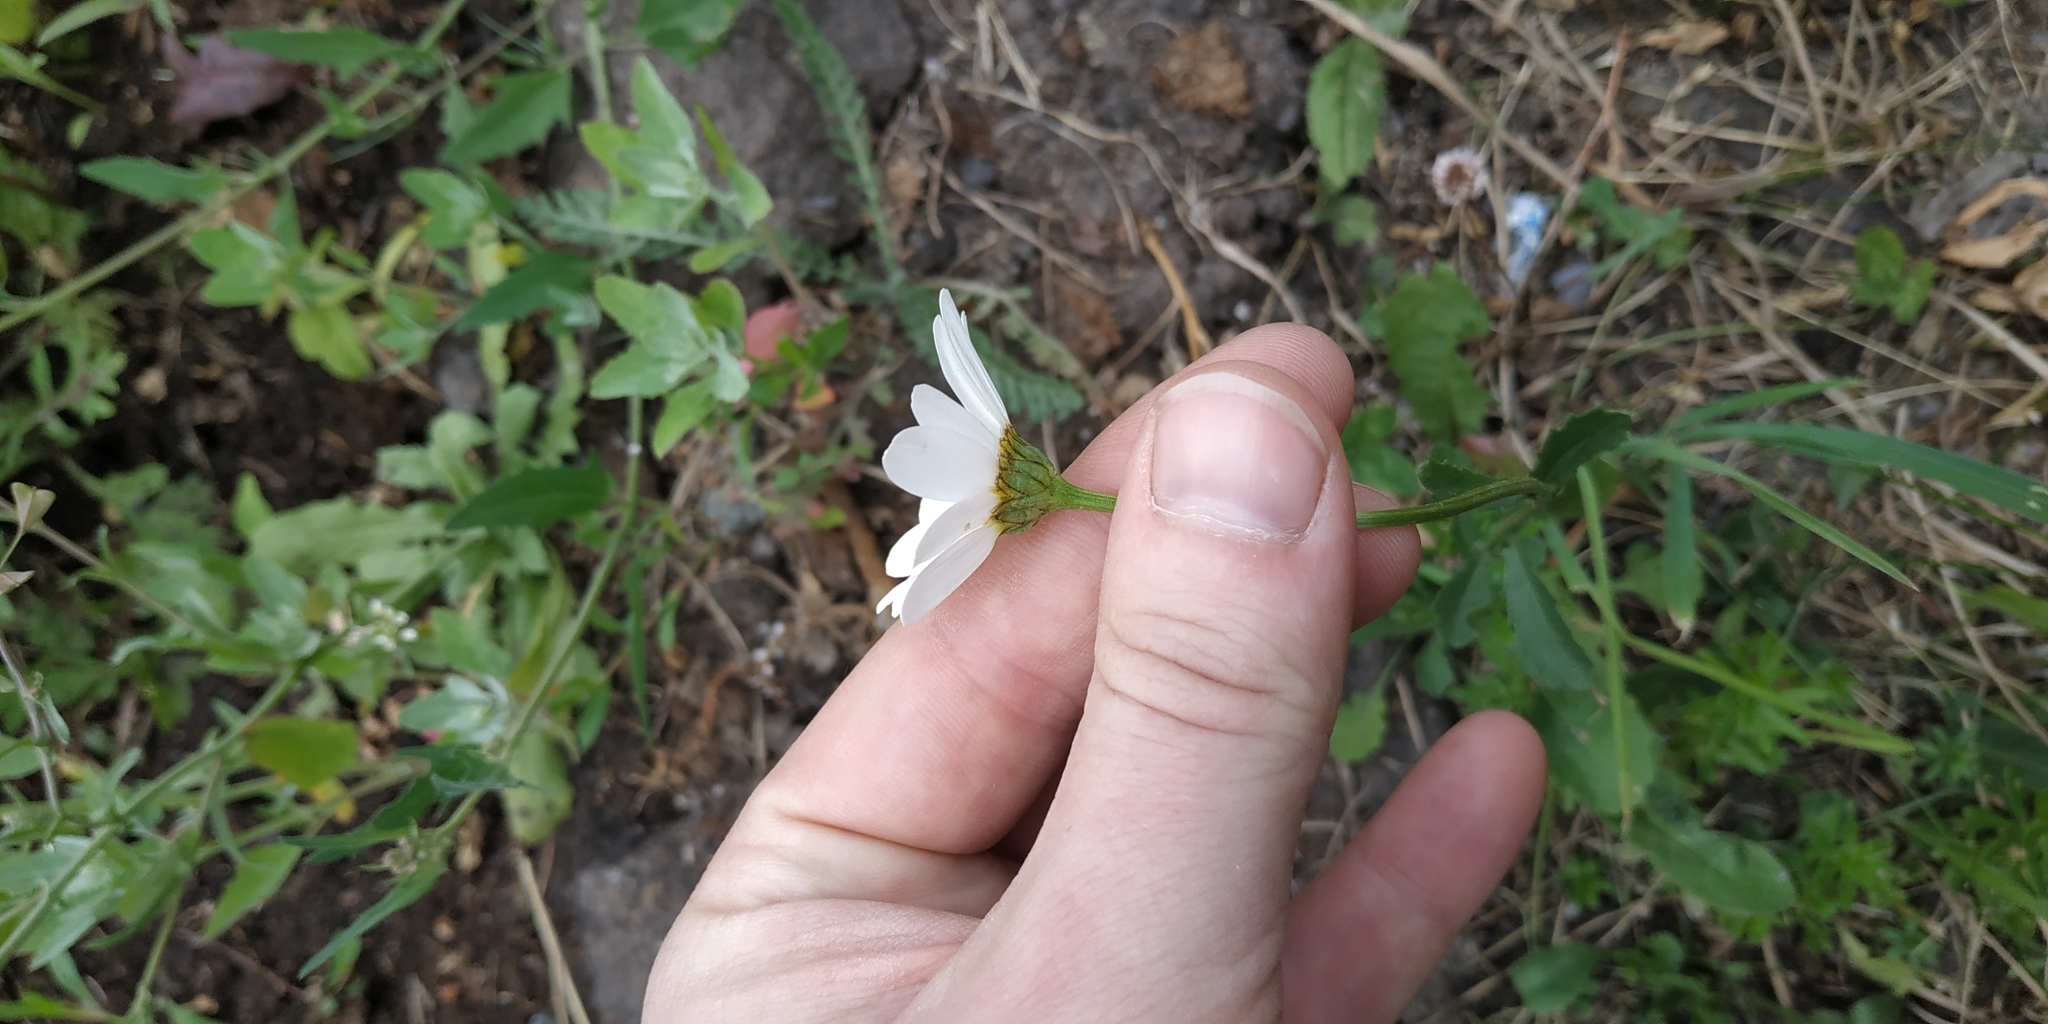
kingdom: Plantae
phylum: Tracheophyta
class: Magnoliopsida
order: Asterales
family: Asteraceae
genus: Leucanthemum
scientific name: Leucanthemum ircutianum
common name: Daisy
